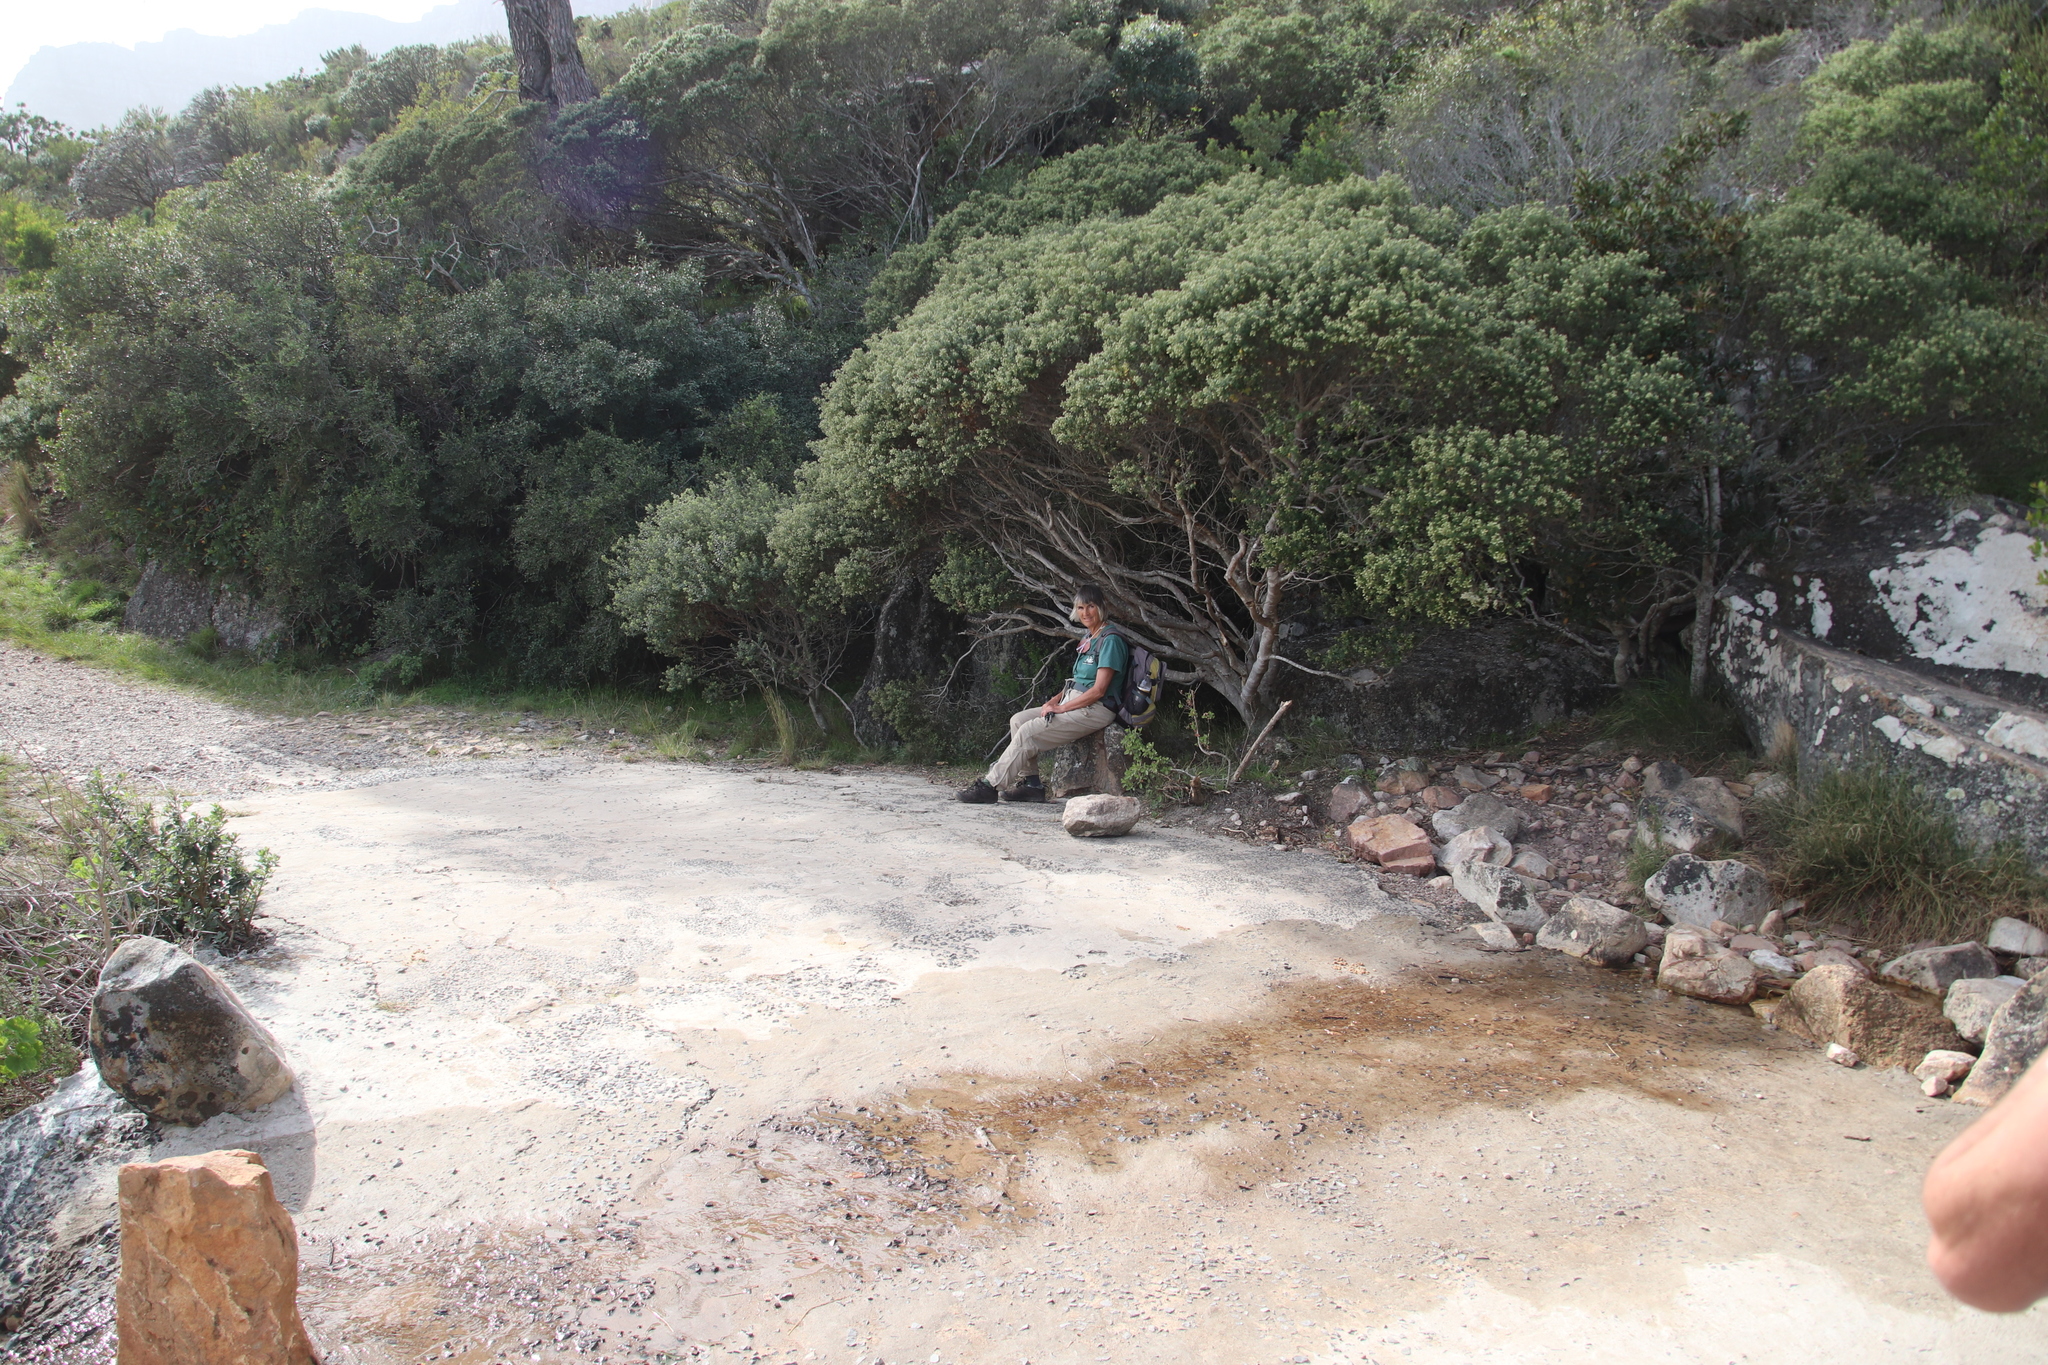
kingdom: Plantae
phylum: Tracheophyta
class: Magnoliopsida
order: Rosales
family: Rhamnaceae
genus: Phylica
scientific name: Phylica buxifolia
